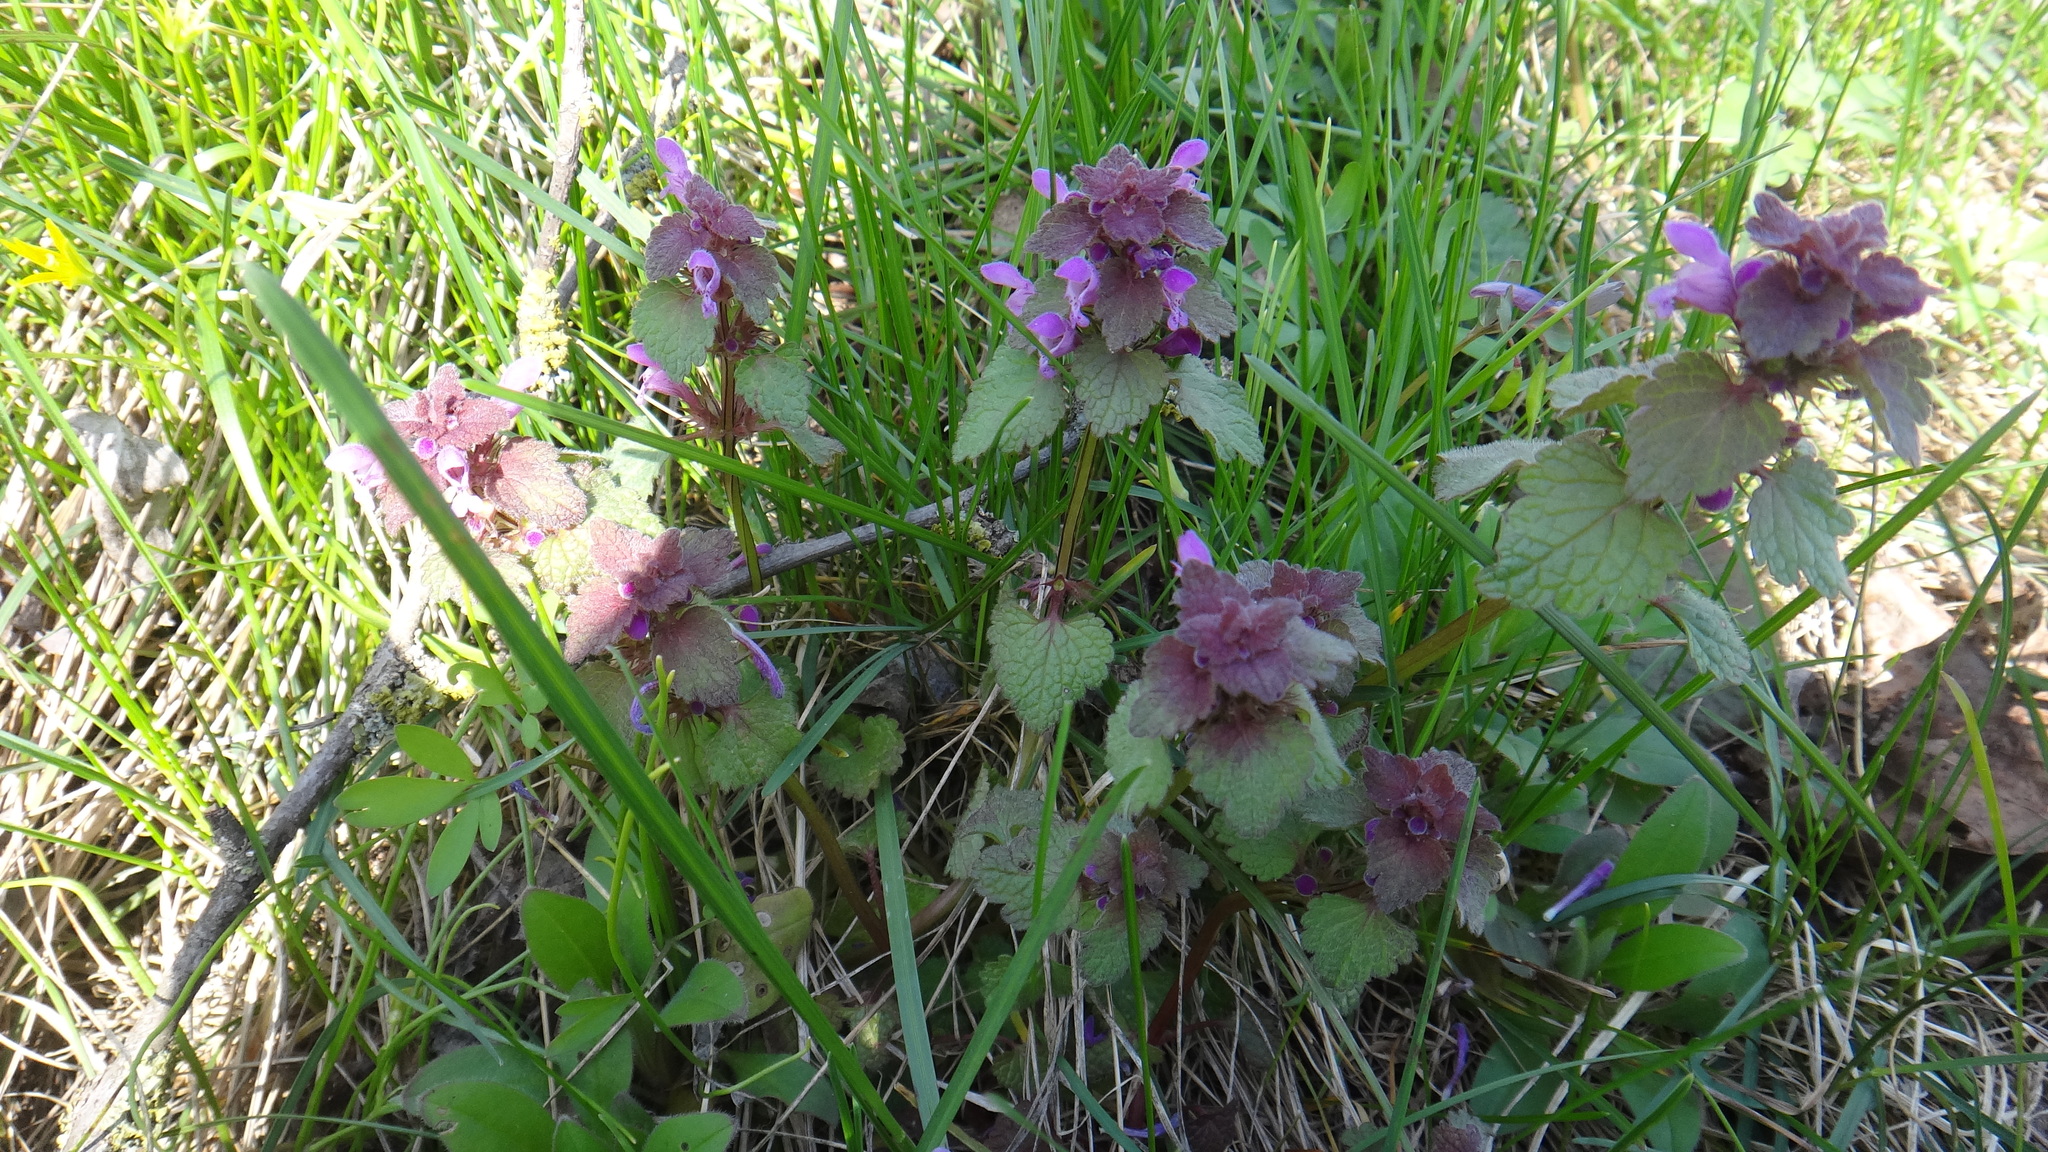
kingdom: Plantae
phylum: Tracheophyta
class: Magnoliopsida
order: Lamiales
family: Lamiaceae
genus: Lamium
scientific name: Lamium purpureum
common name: Red dead-nettle
